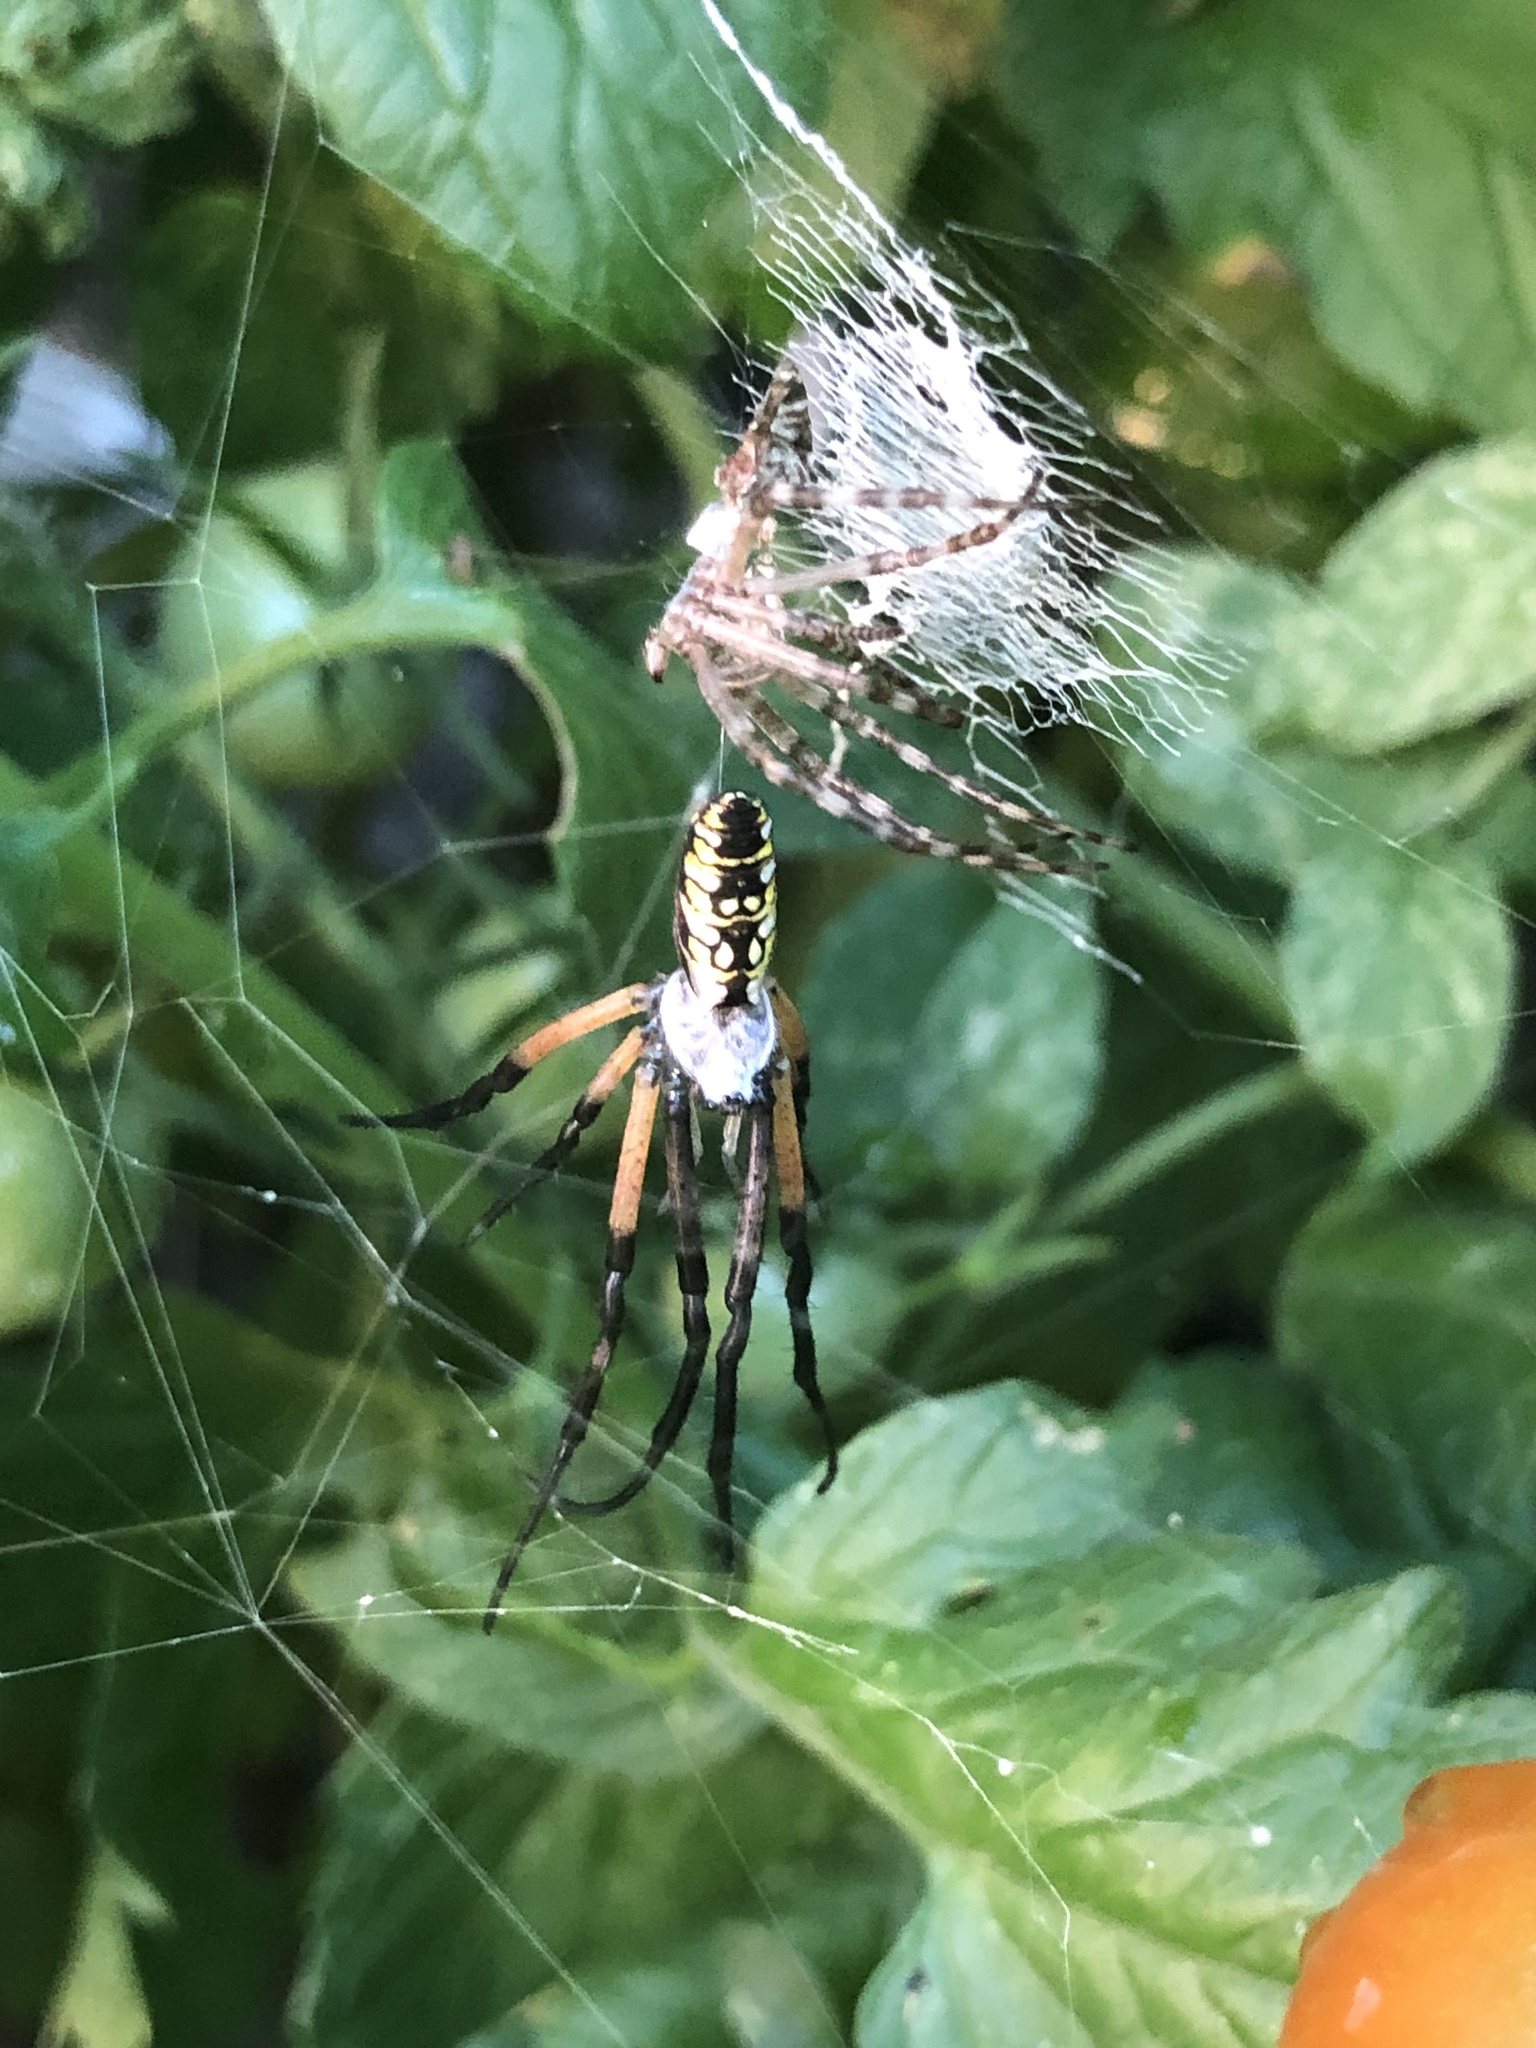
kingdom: Animalia
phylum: Arthropoda
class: Arachnida
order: Araneae
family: Araneidae
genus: Argiope
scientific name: Argiope aurantia
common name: Orb weavers
